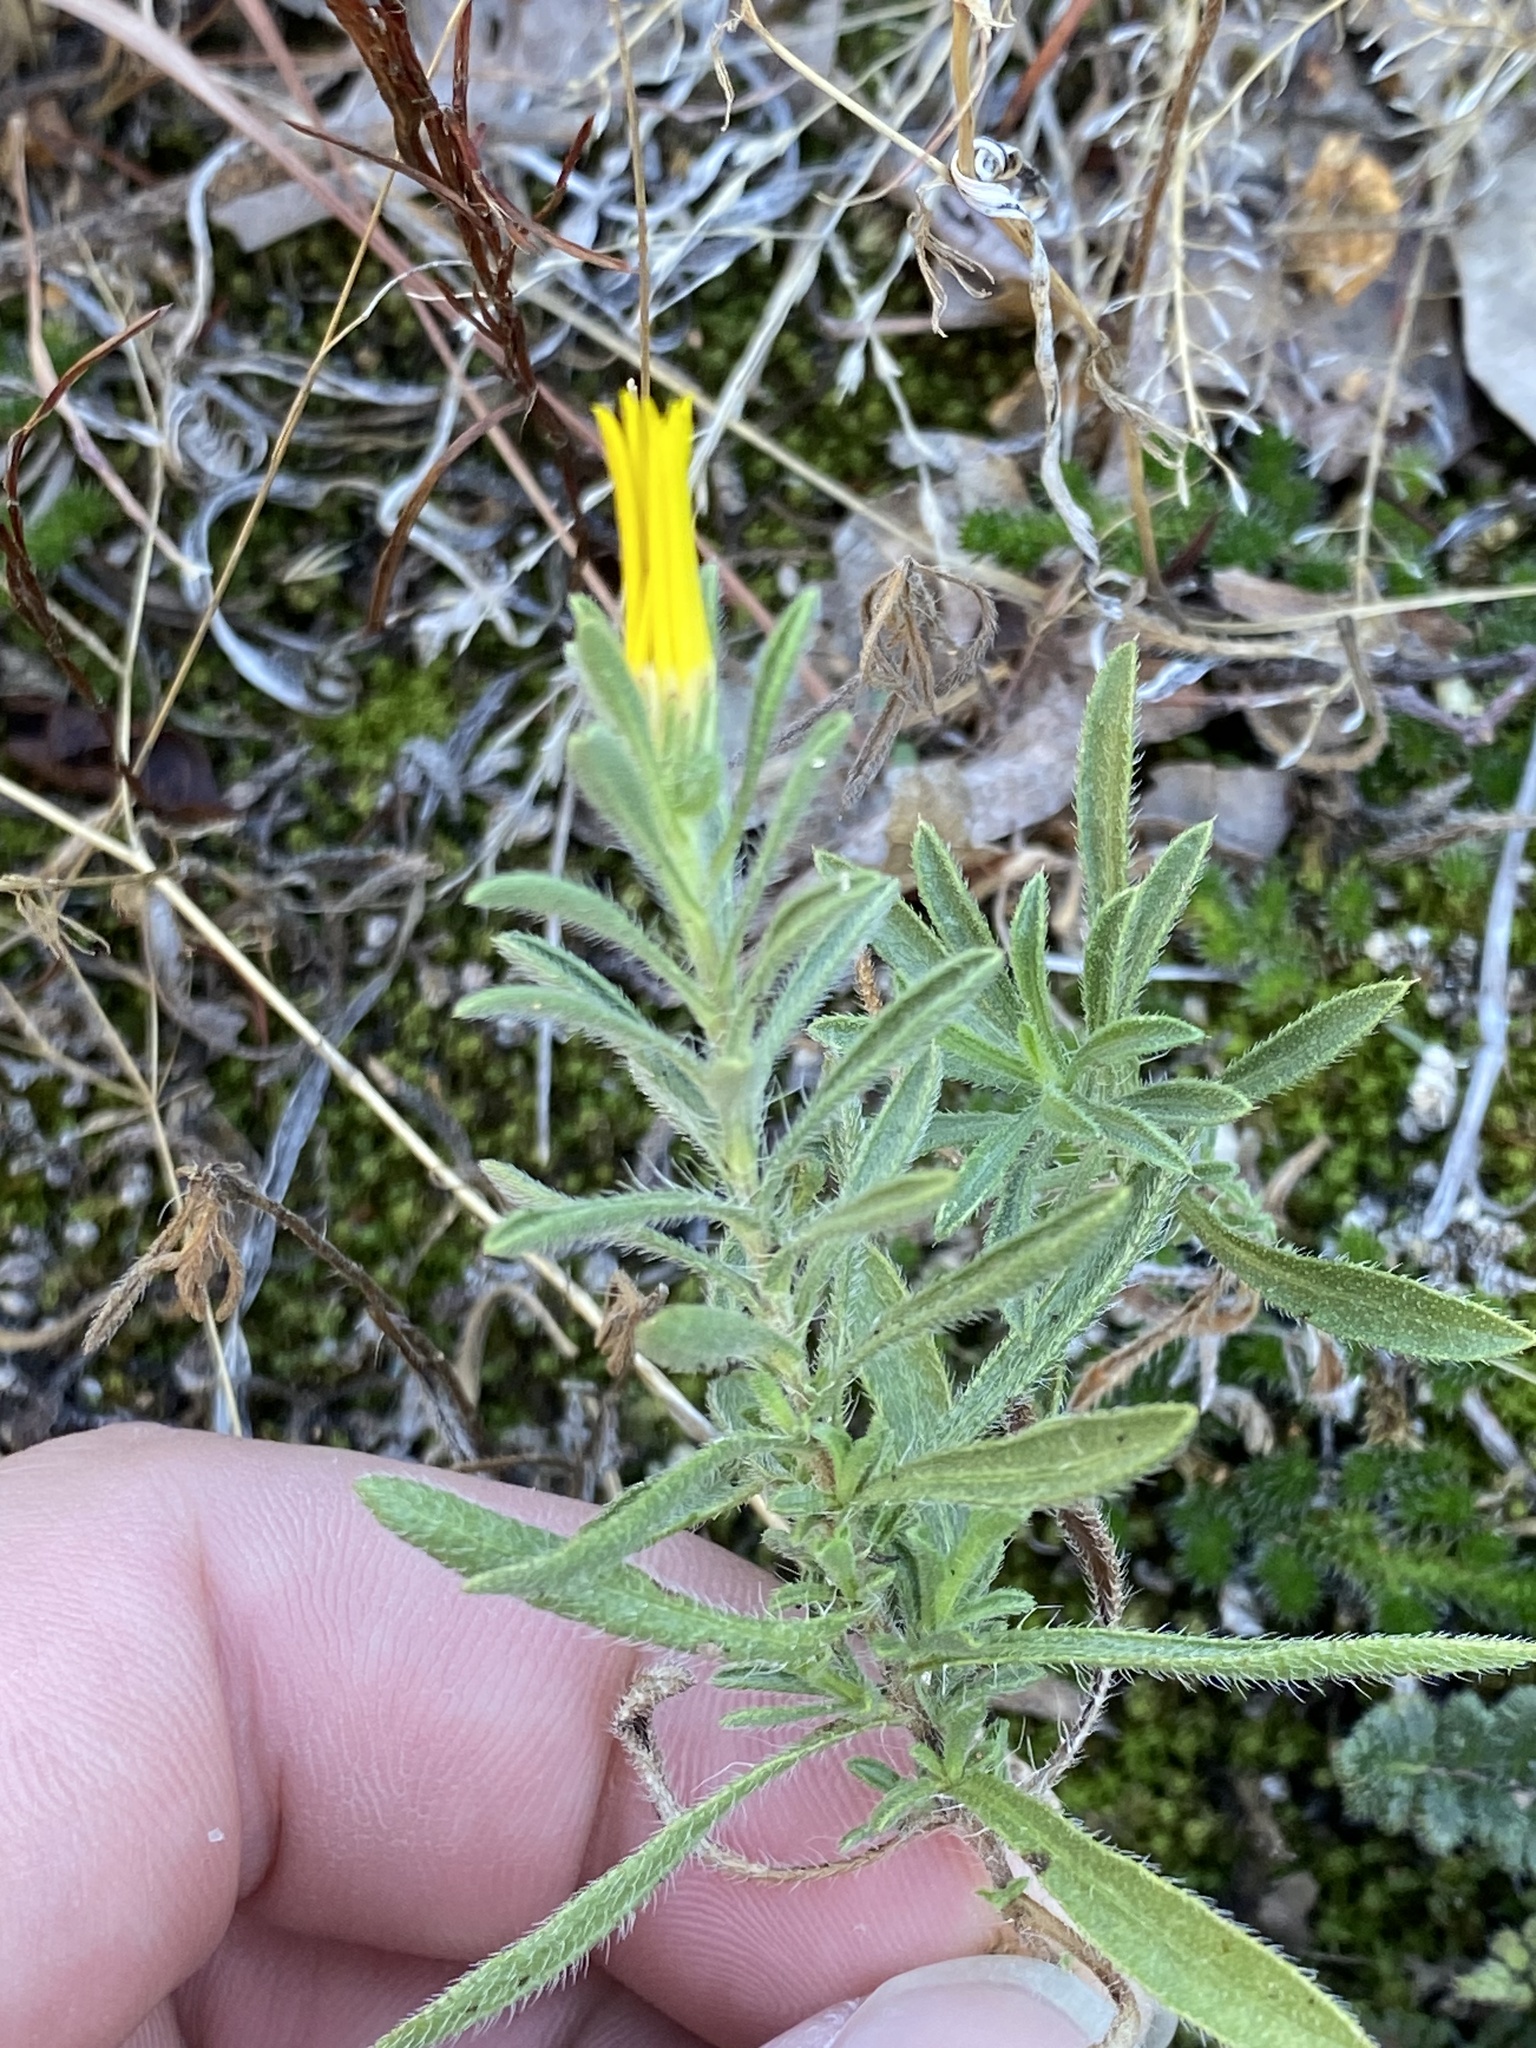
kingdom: Plantae
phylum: Tracheophyta
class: Magnoliopsida
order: Asterales
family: Asteraceae
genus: Heterotheca
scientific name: Heterotheca stenophylla
